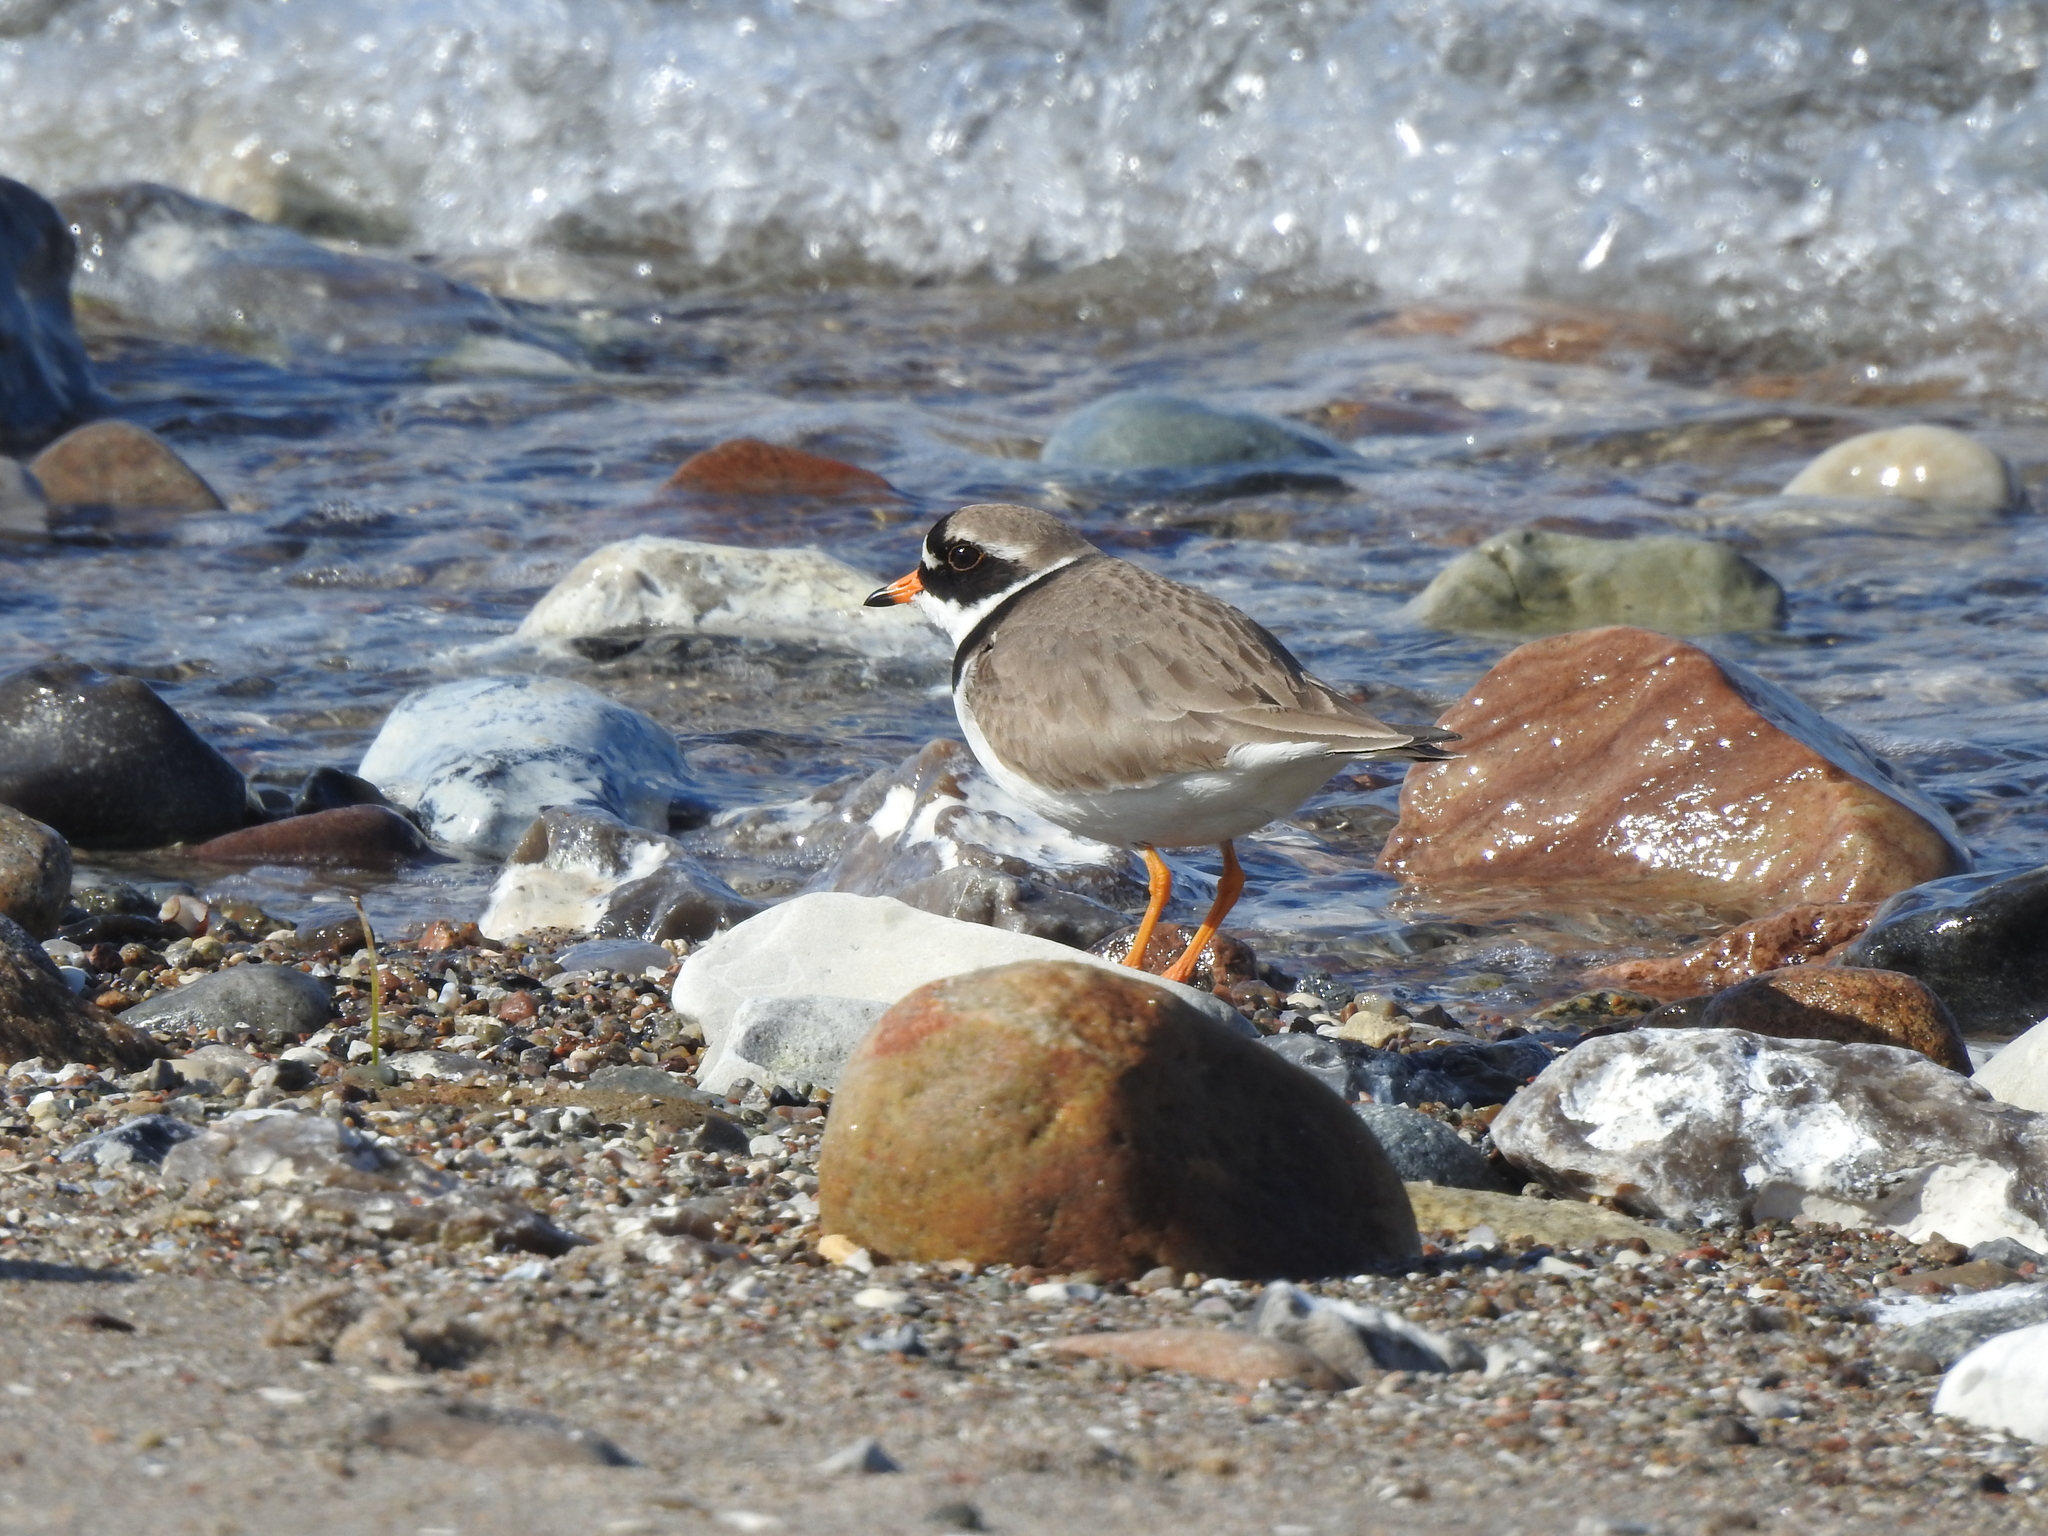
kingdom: Animalia
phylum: Chordata
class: Aves
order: Charadriiformes
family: Charadriidae
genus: Charadrius
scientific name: Charadrius hiaticula
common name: Common ringed plover
